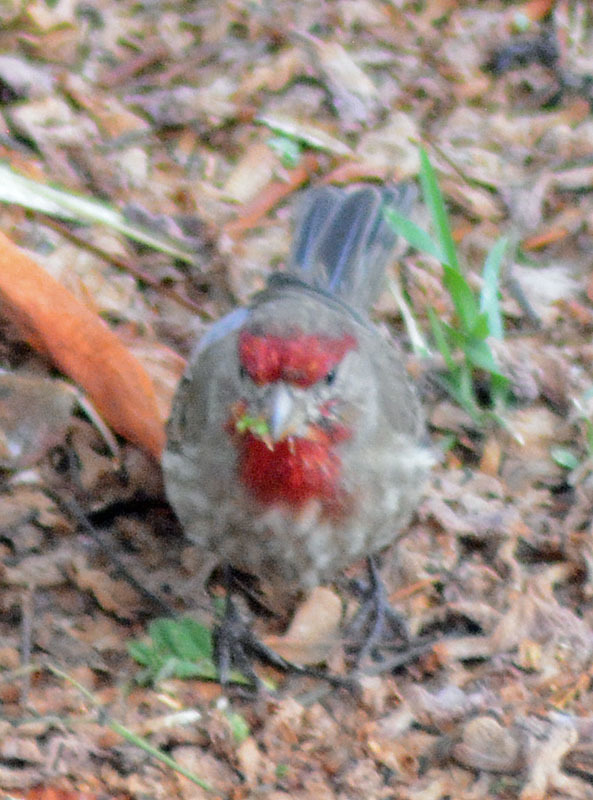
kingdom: Animalia
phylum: Chordata
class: Aves
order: Passeriformes
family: Fringillidae
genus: Haemorhous
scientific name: Haemorhous mexicanus
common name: House finch
